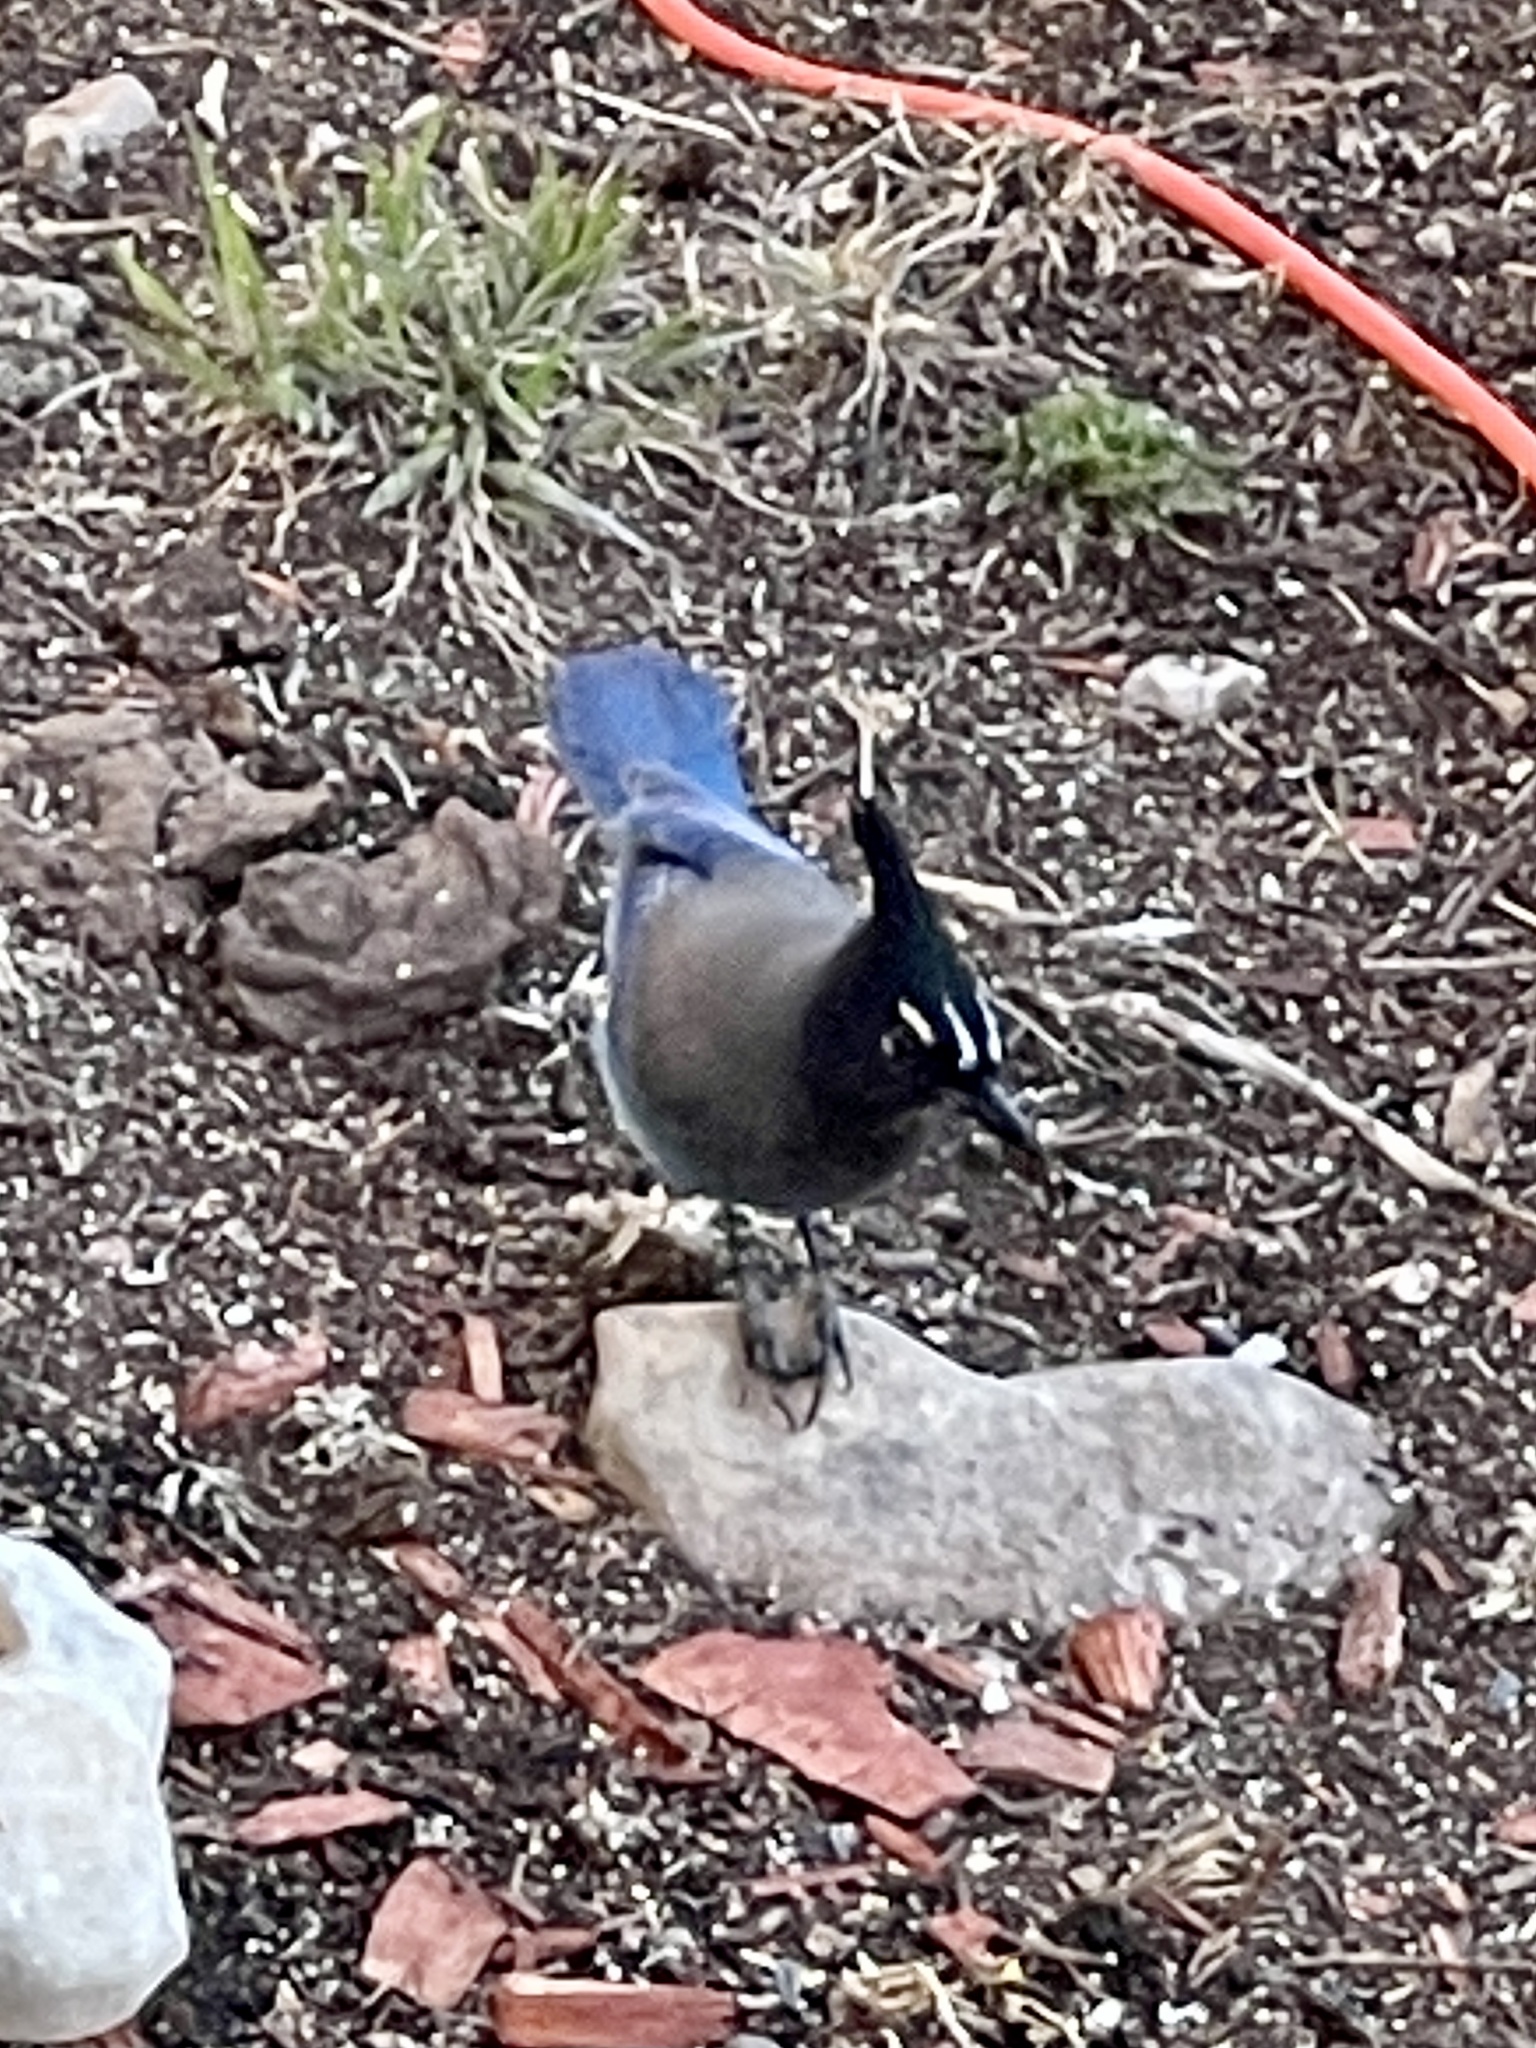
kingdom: Animalia
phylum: Chordata
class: Aves
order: Passeriformes
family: Corvidae
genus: Cyanocitta
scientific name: Cyanocitta stelleri
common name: Steller's jay
